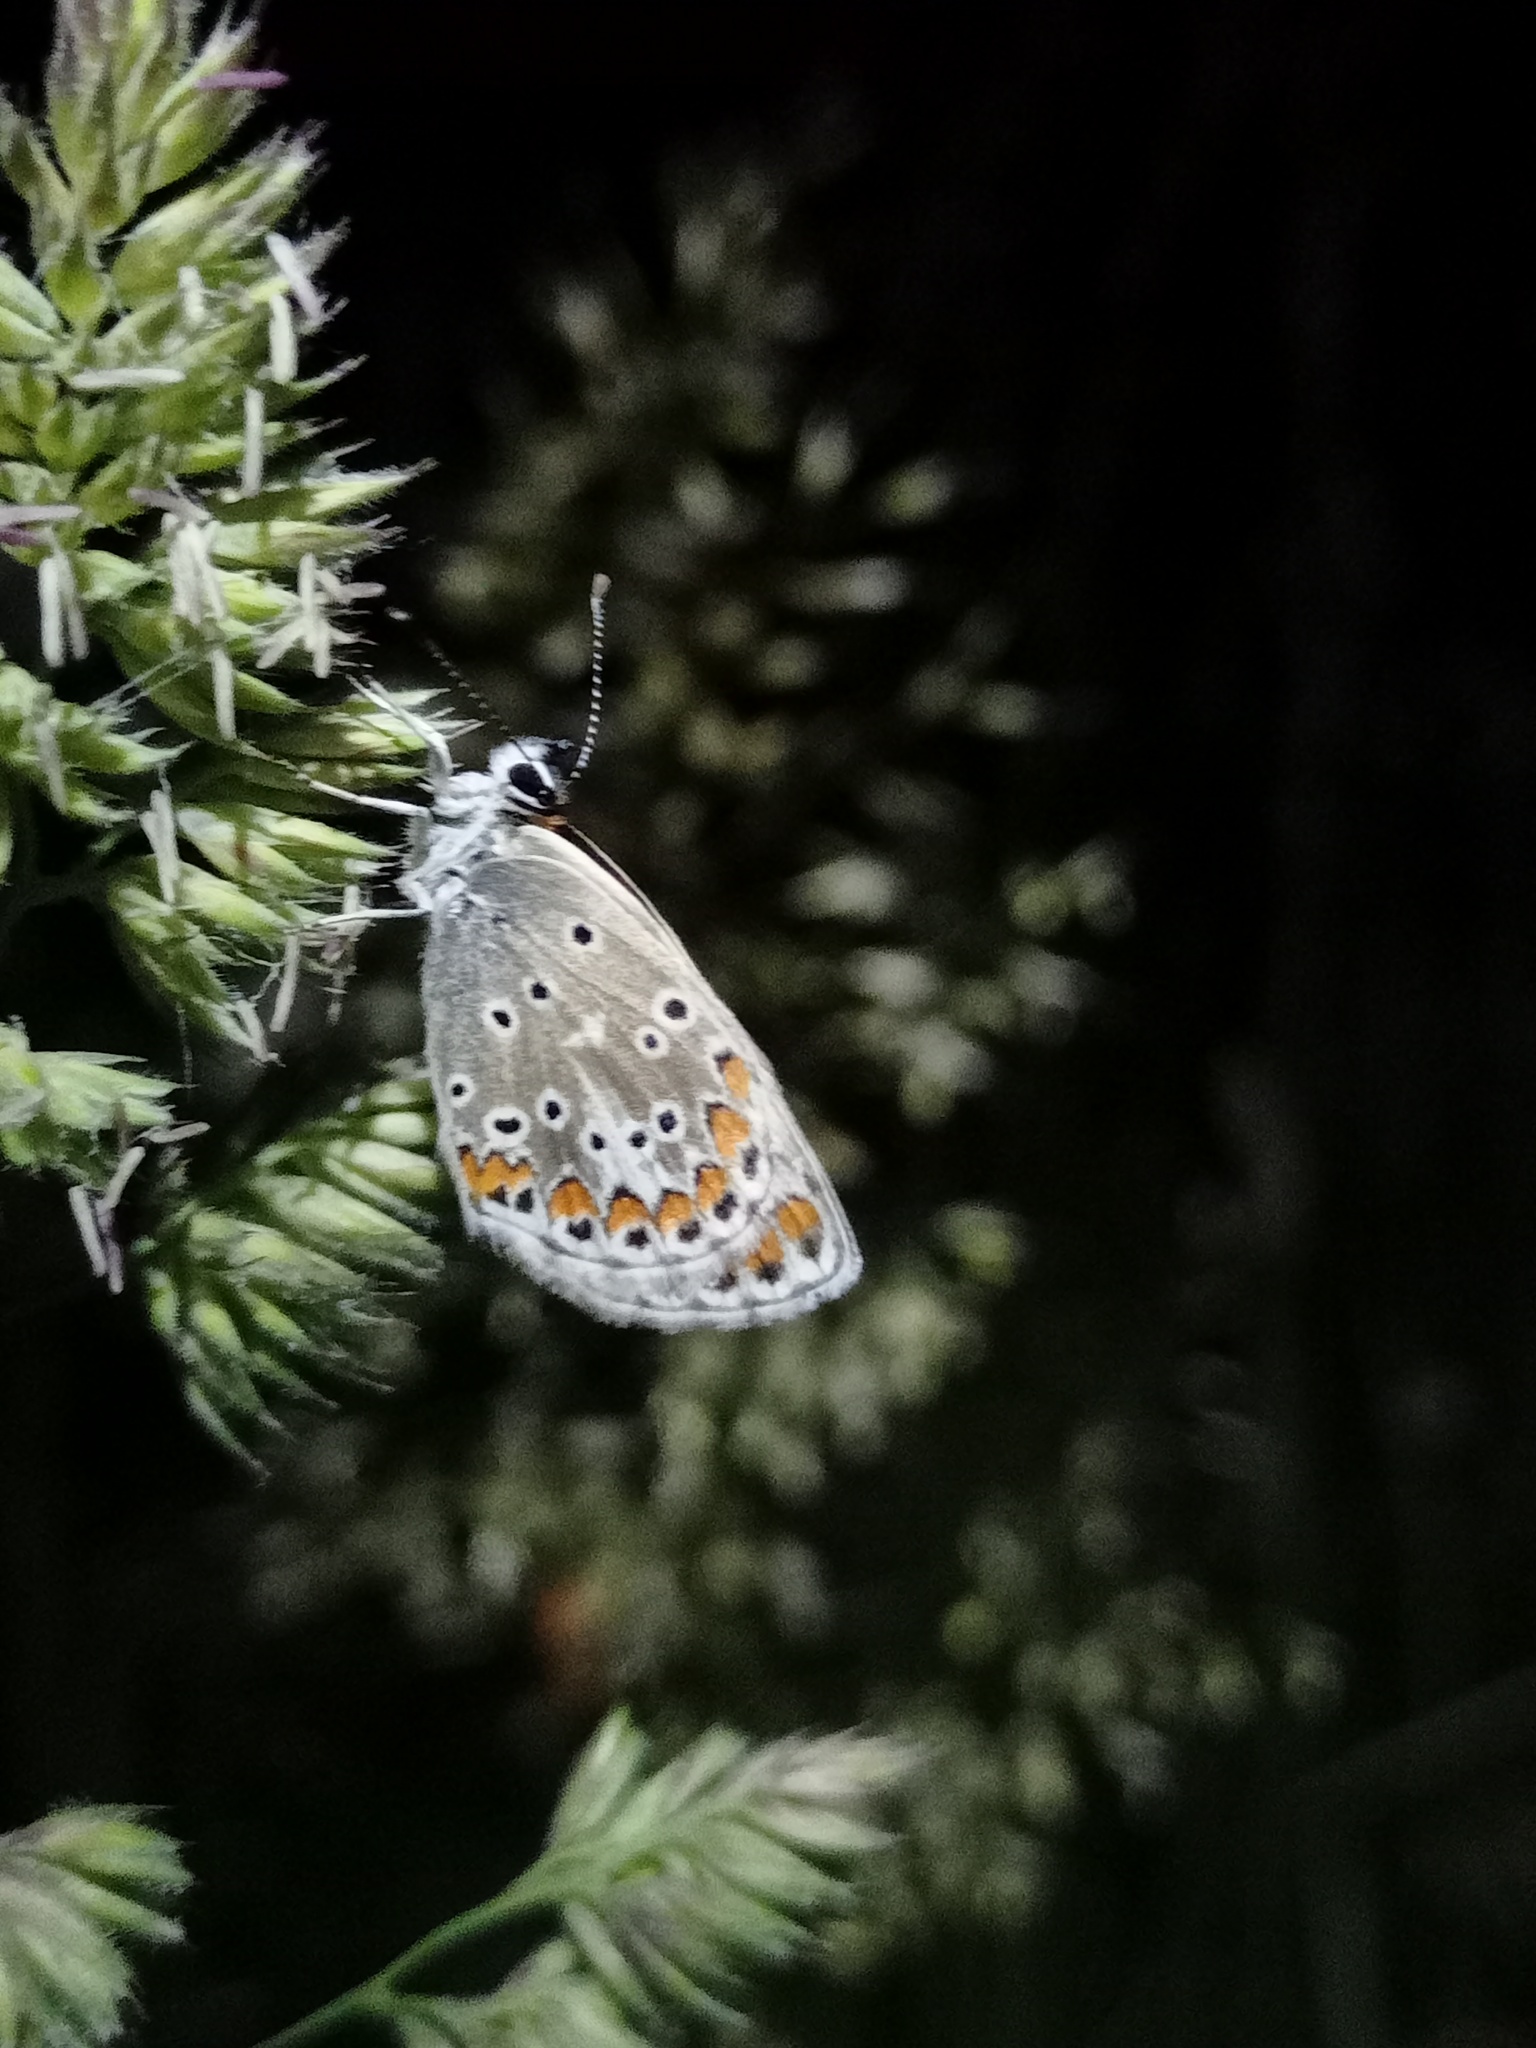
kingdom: Animalia
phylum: Arthropoda
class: Insecta
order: Lepidoptera
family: Lycaenidae
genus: Aricia
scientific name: Aricia agestis
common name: Brown argus
